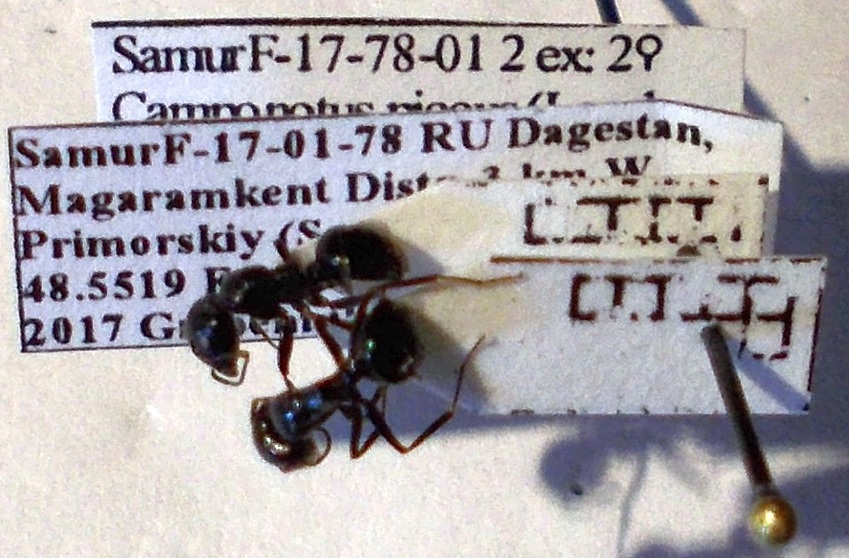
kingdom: Animalia
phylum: Arthropoda
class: Insecta
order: Hymenoptera
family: Formicidae
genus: Camponotus
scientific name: Camponotus piceus
